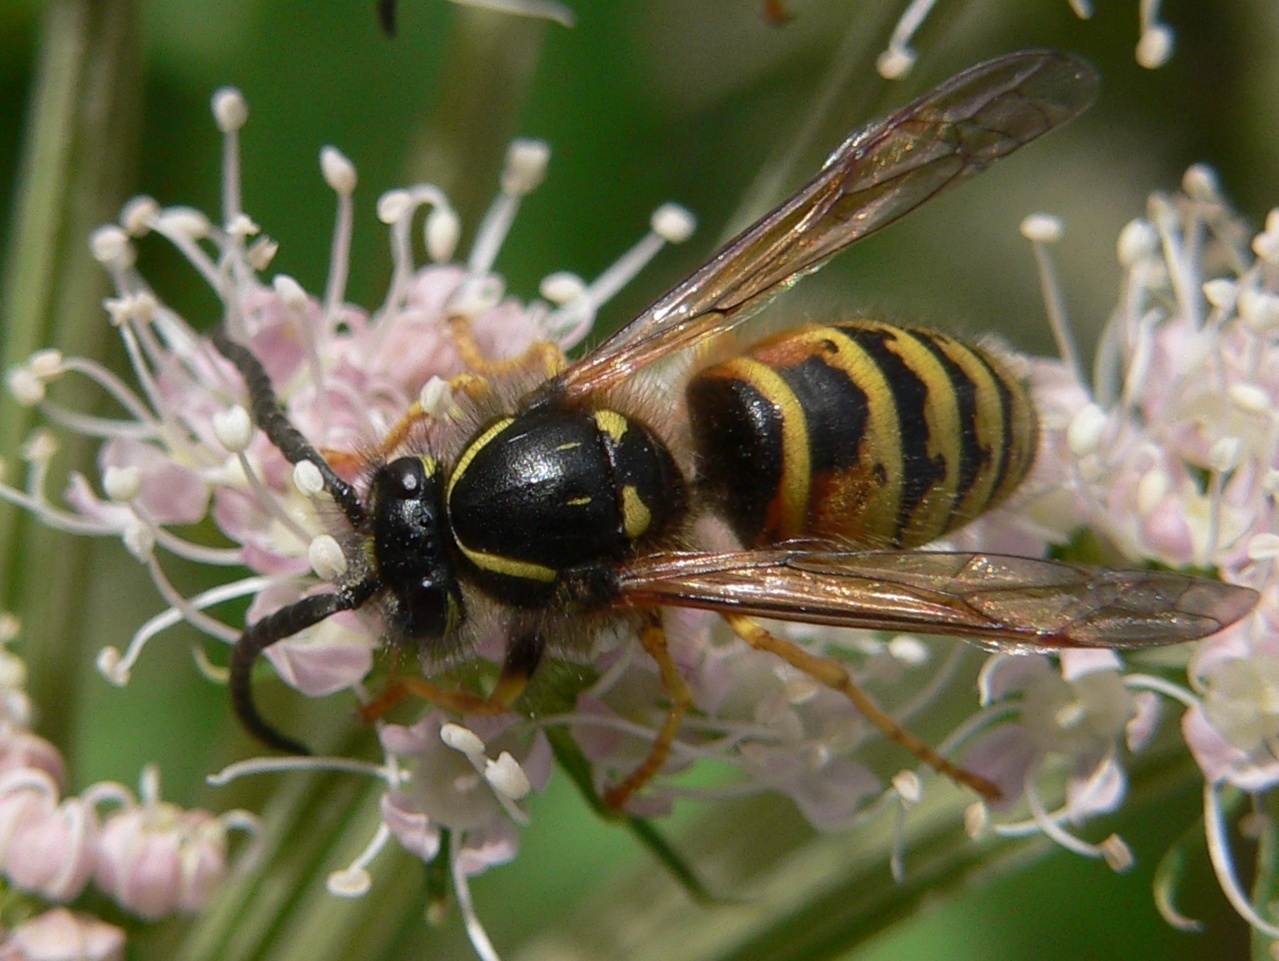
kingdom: Animalia
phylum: Arthropoda
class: Insecta
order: Hymenoptera
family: Vespidae
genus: Dolichovespula
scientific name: Dolichovespula norwegica
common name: Norwegian wasp
